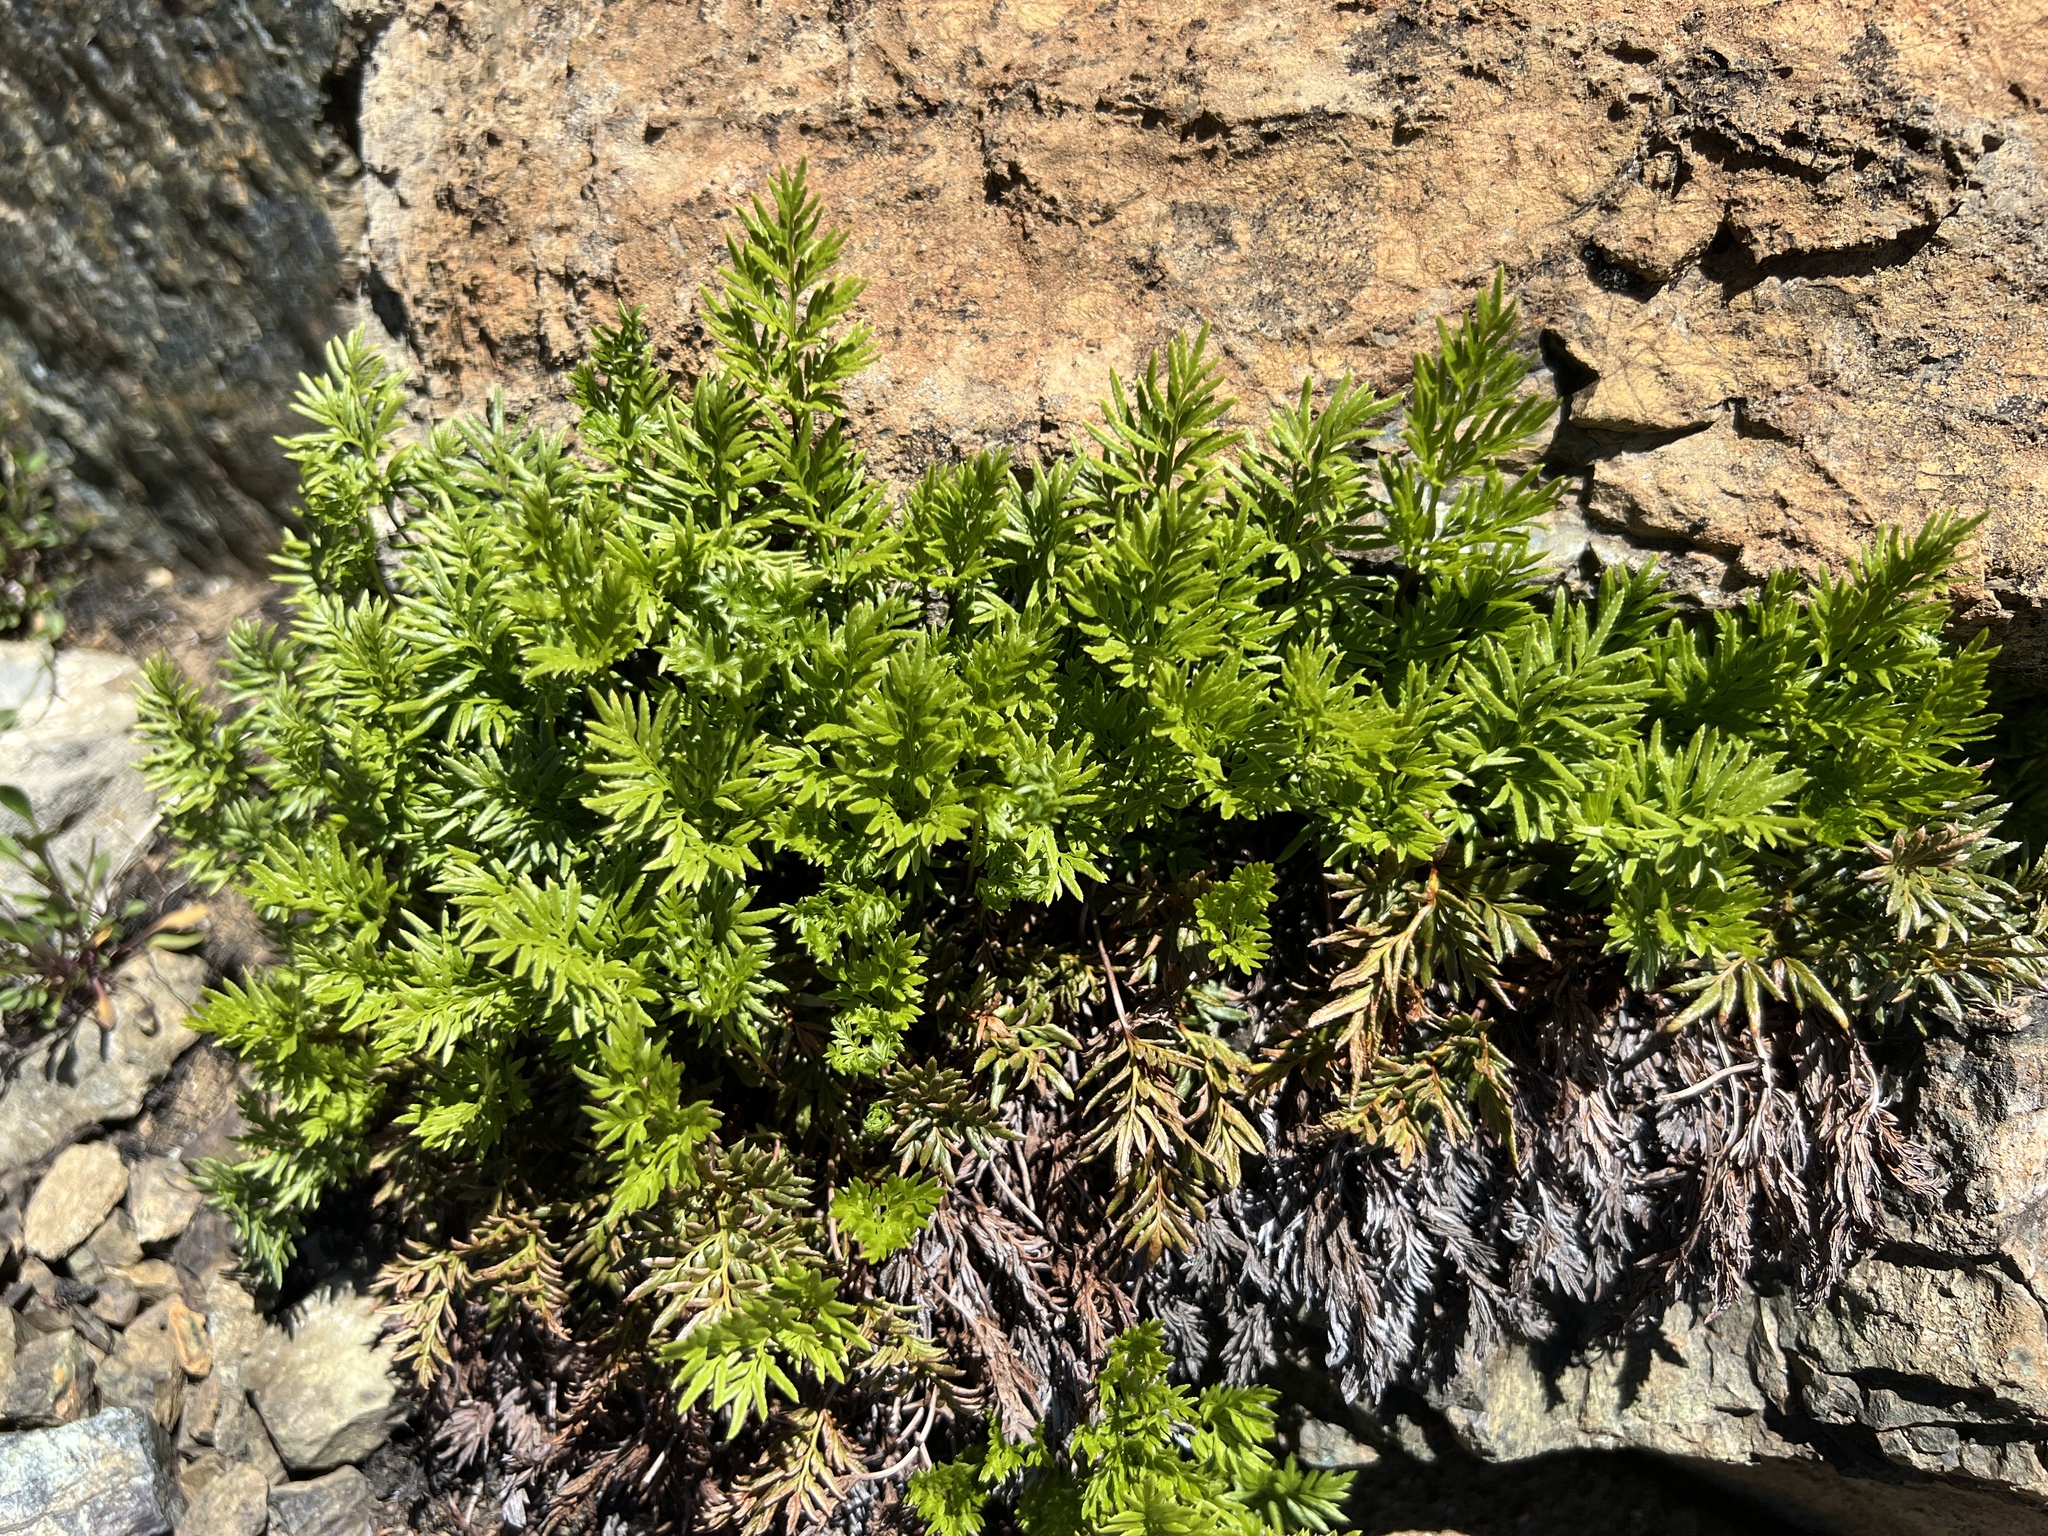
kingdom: Plantae
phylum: Tracheophyta
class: Polypodiopsida
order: Polypodiales
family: Pteridaceae
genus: Aspidotis
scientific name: Aspidotis densa
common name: Indian's dream
